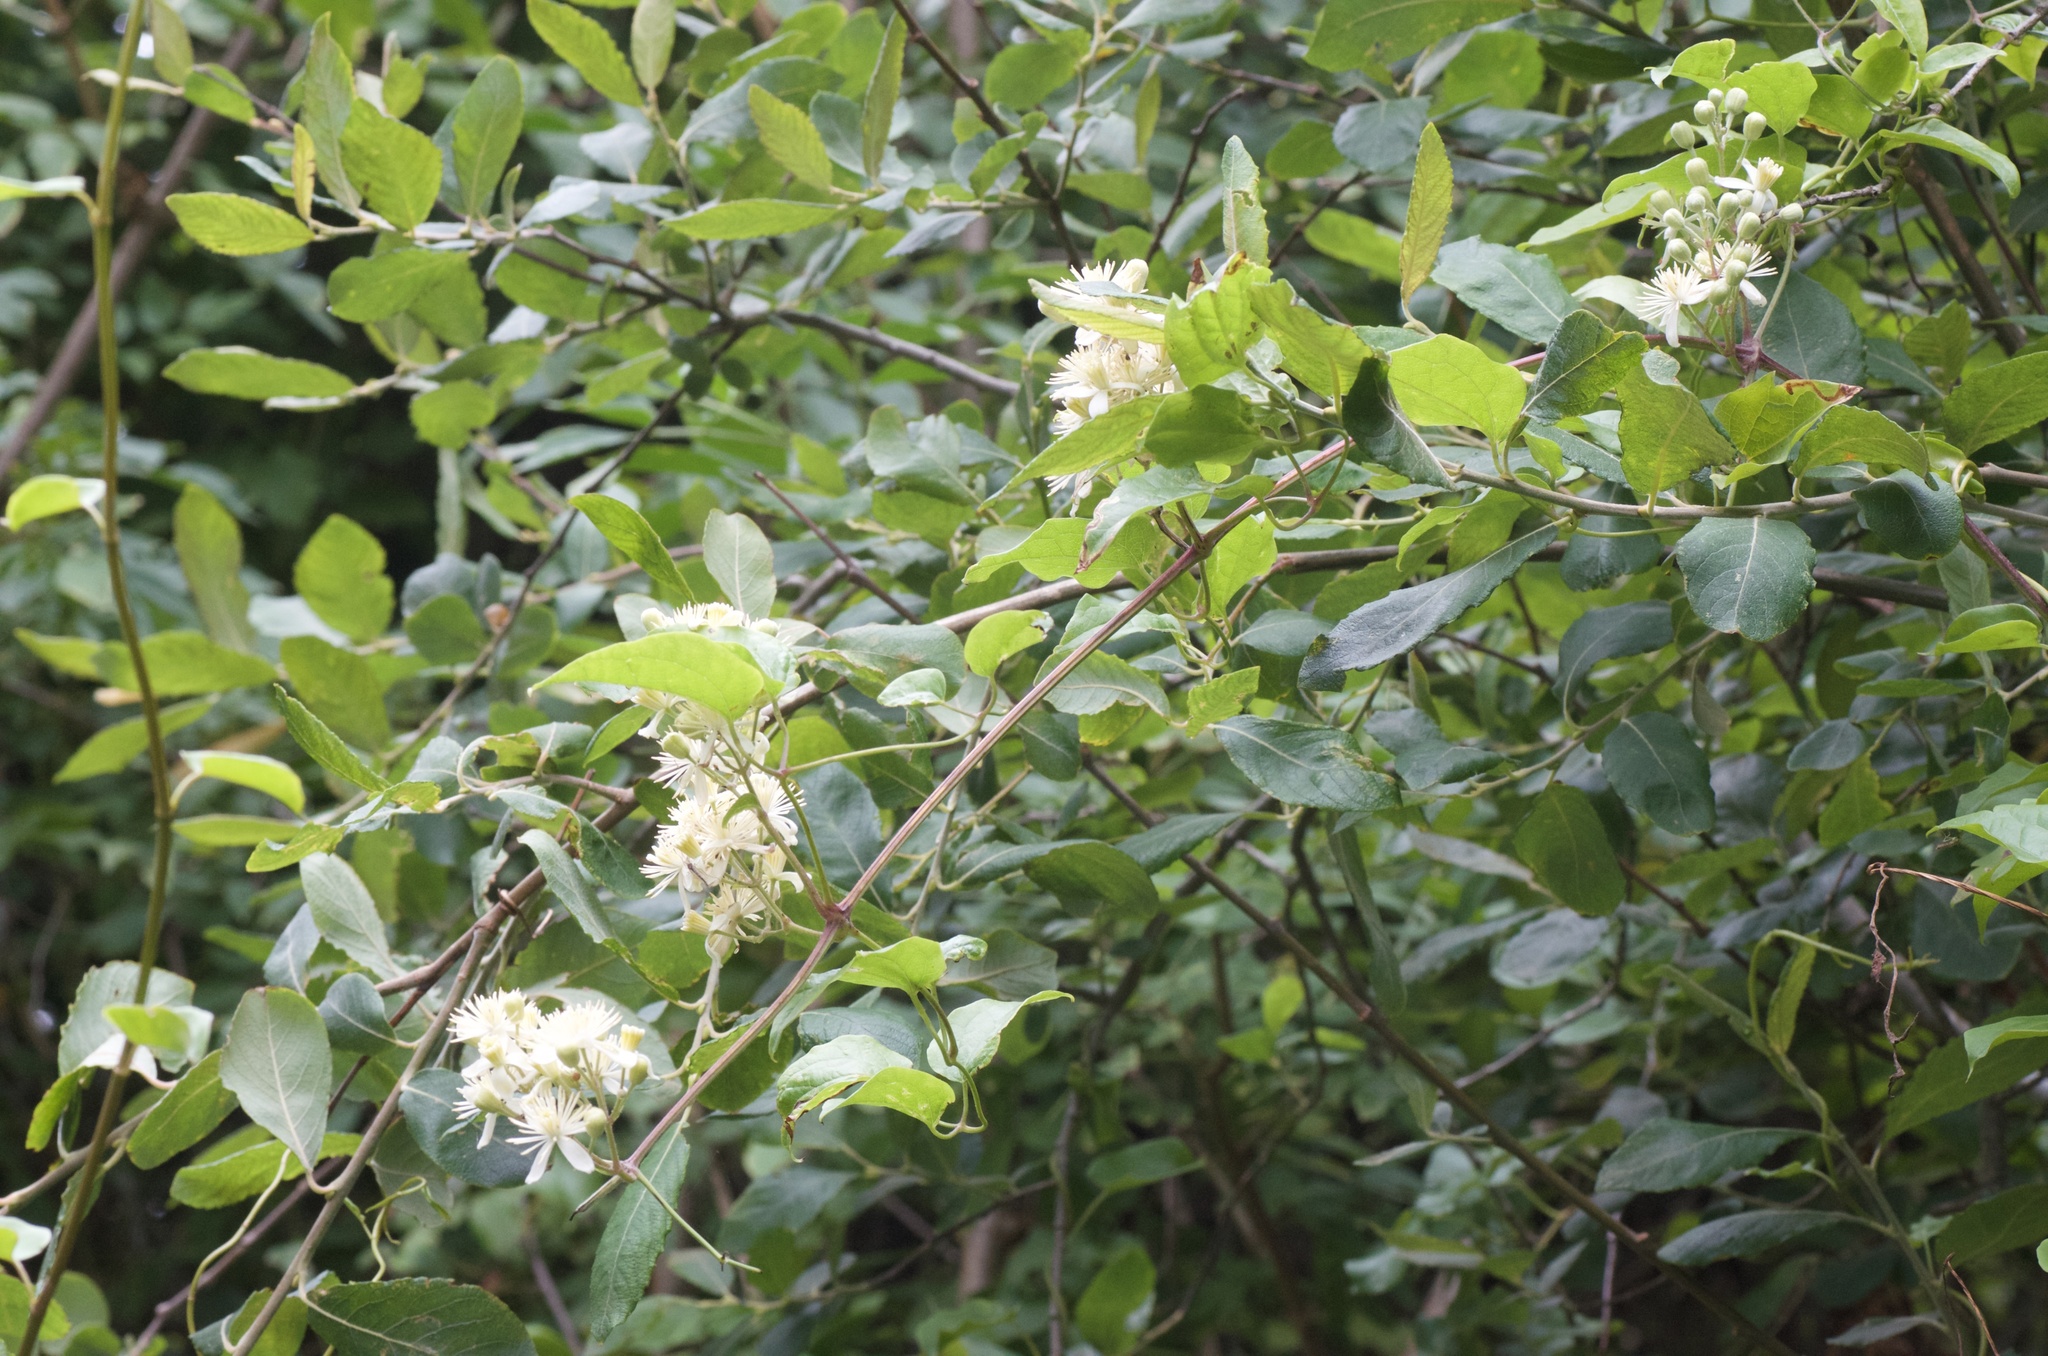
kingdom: Plantae
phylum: Tracheophyta
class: Magnoliopsida
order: Ranunculales
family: Ranunculaceae
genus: Clematis
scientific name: Clematis vitalba
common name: Evergreen clematis
